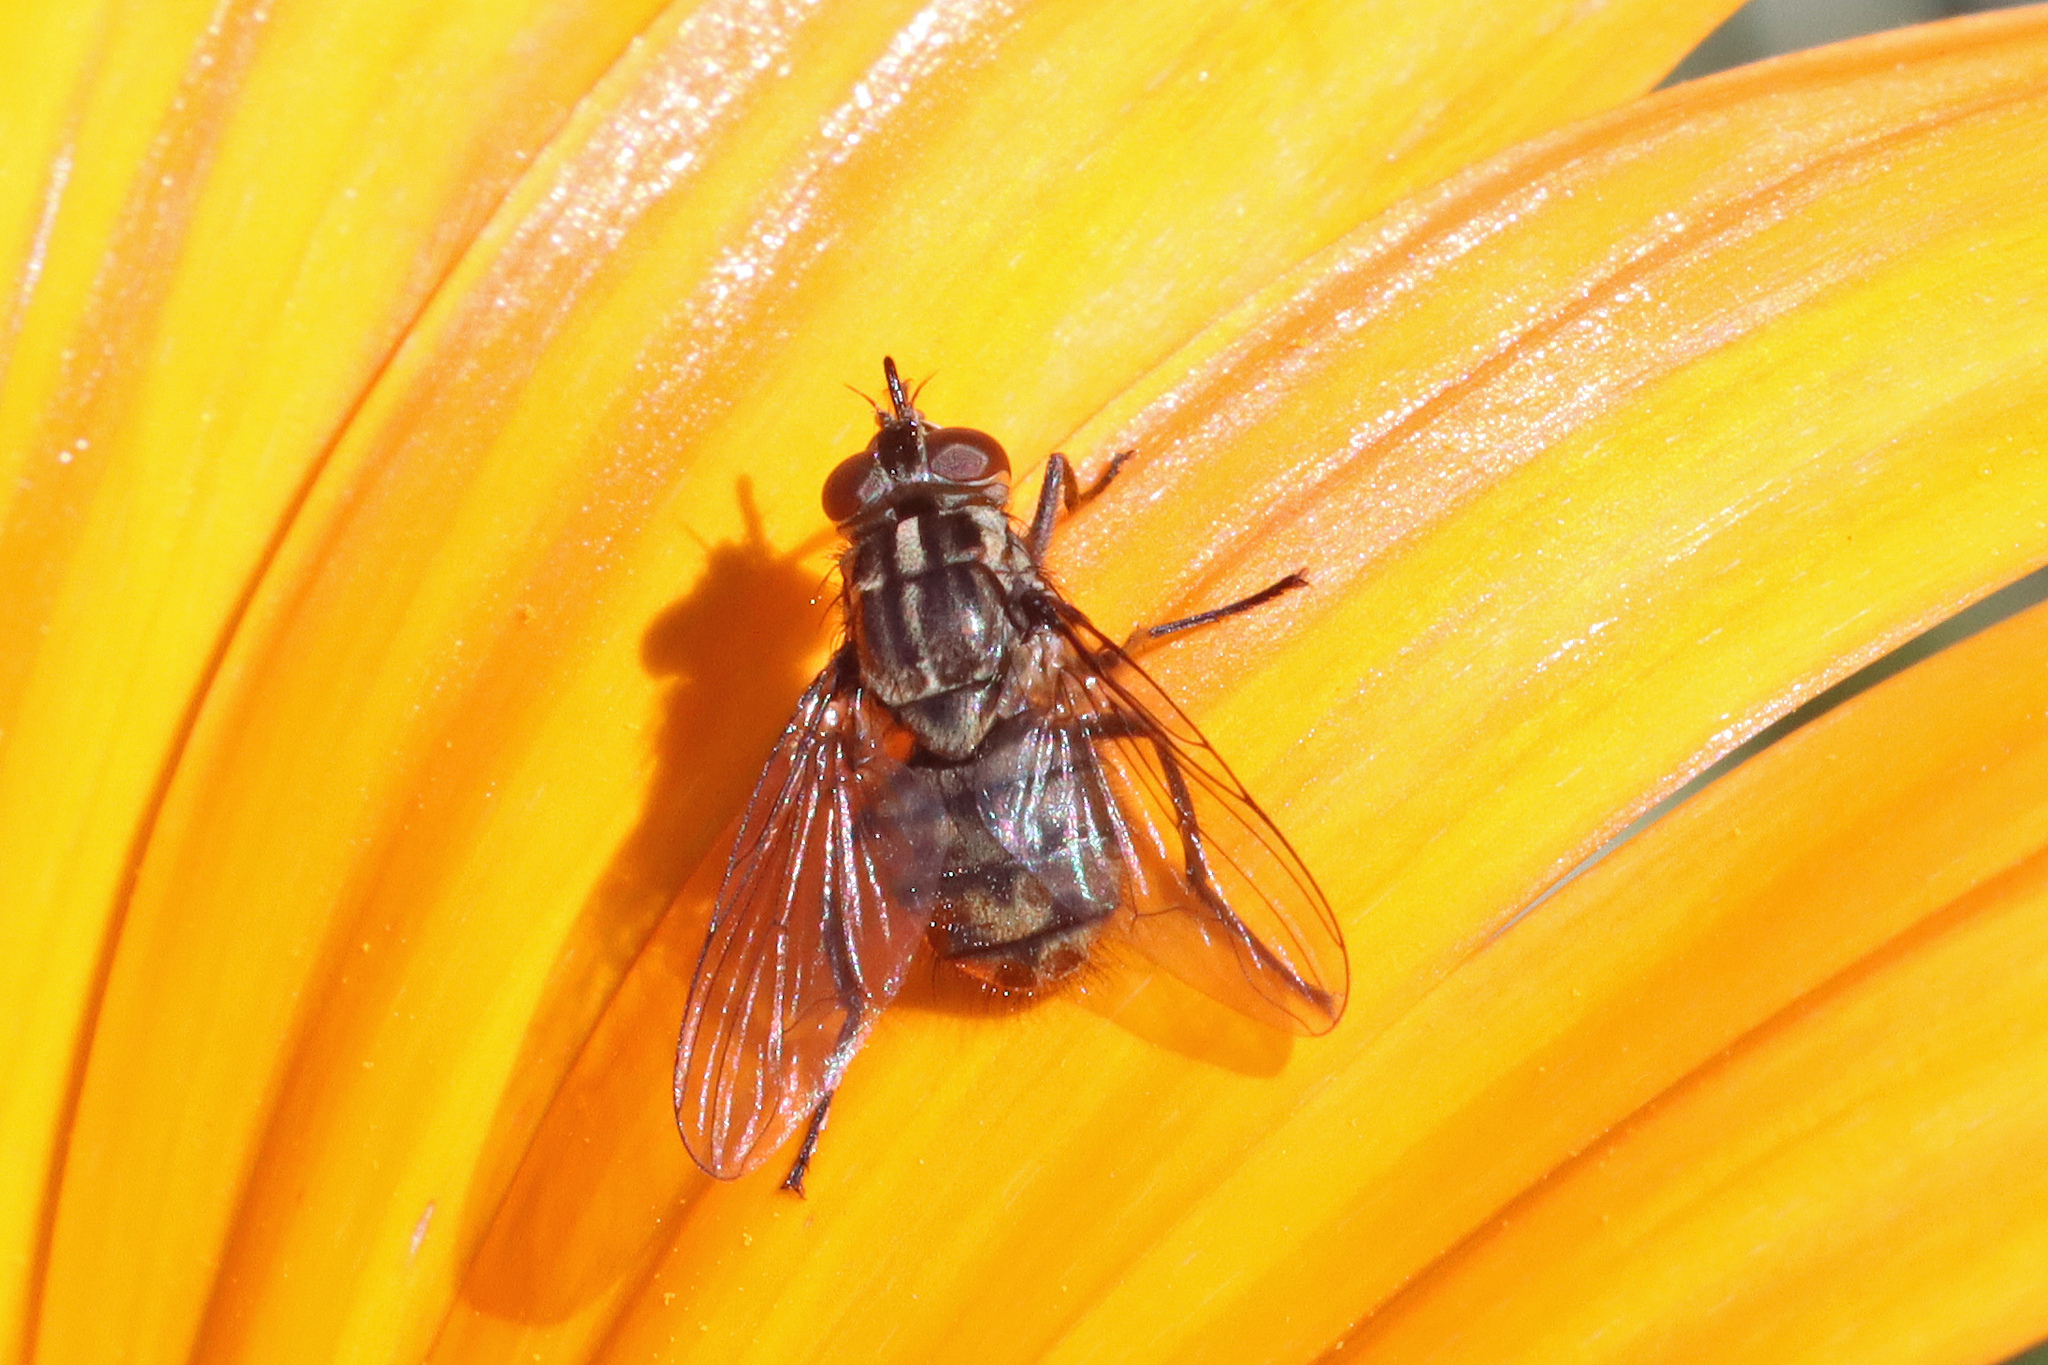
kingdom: Animalia
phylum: Arthropoda
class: Insecta
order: Diptera
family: Muscidae
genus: Stomoxys
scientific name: Stomoxys calcitrans
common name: Stable fly
